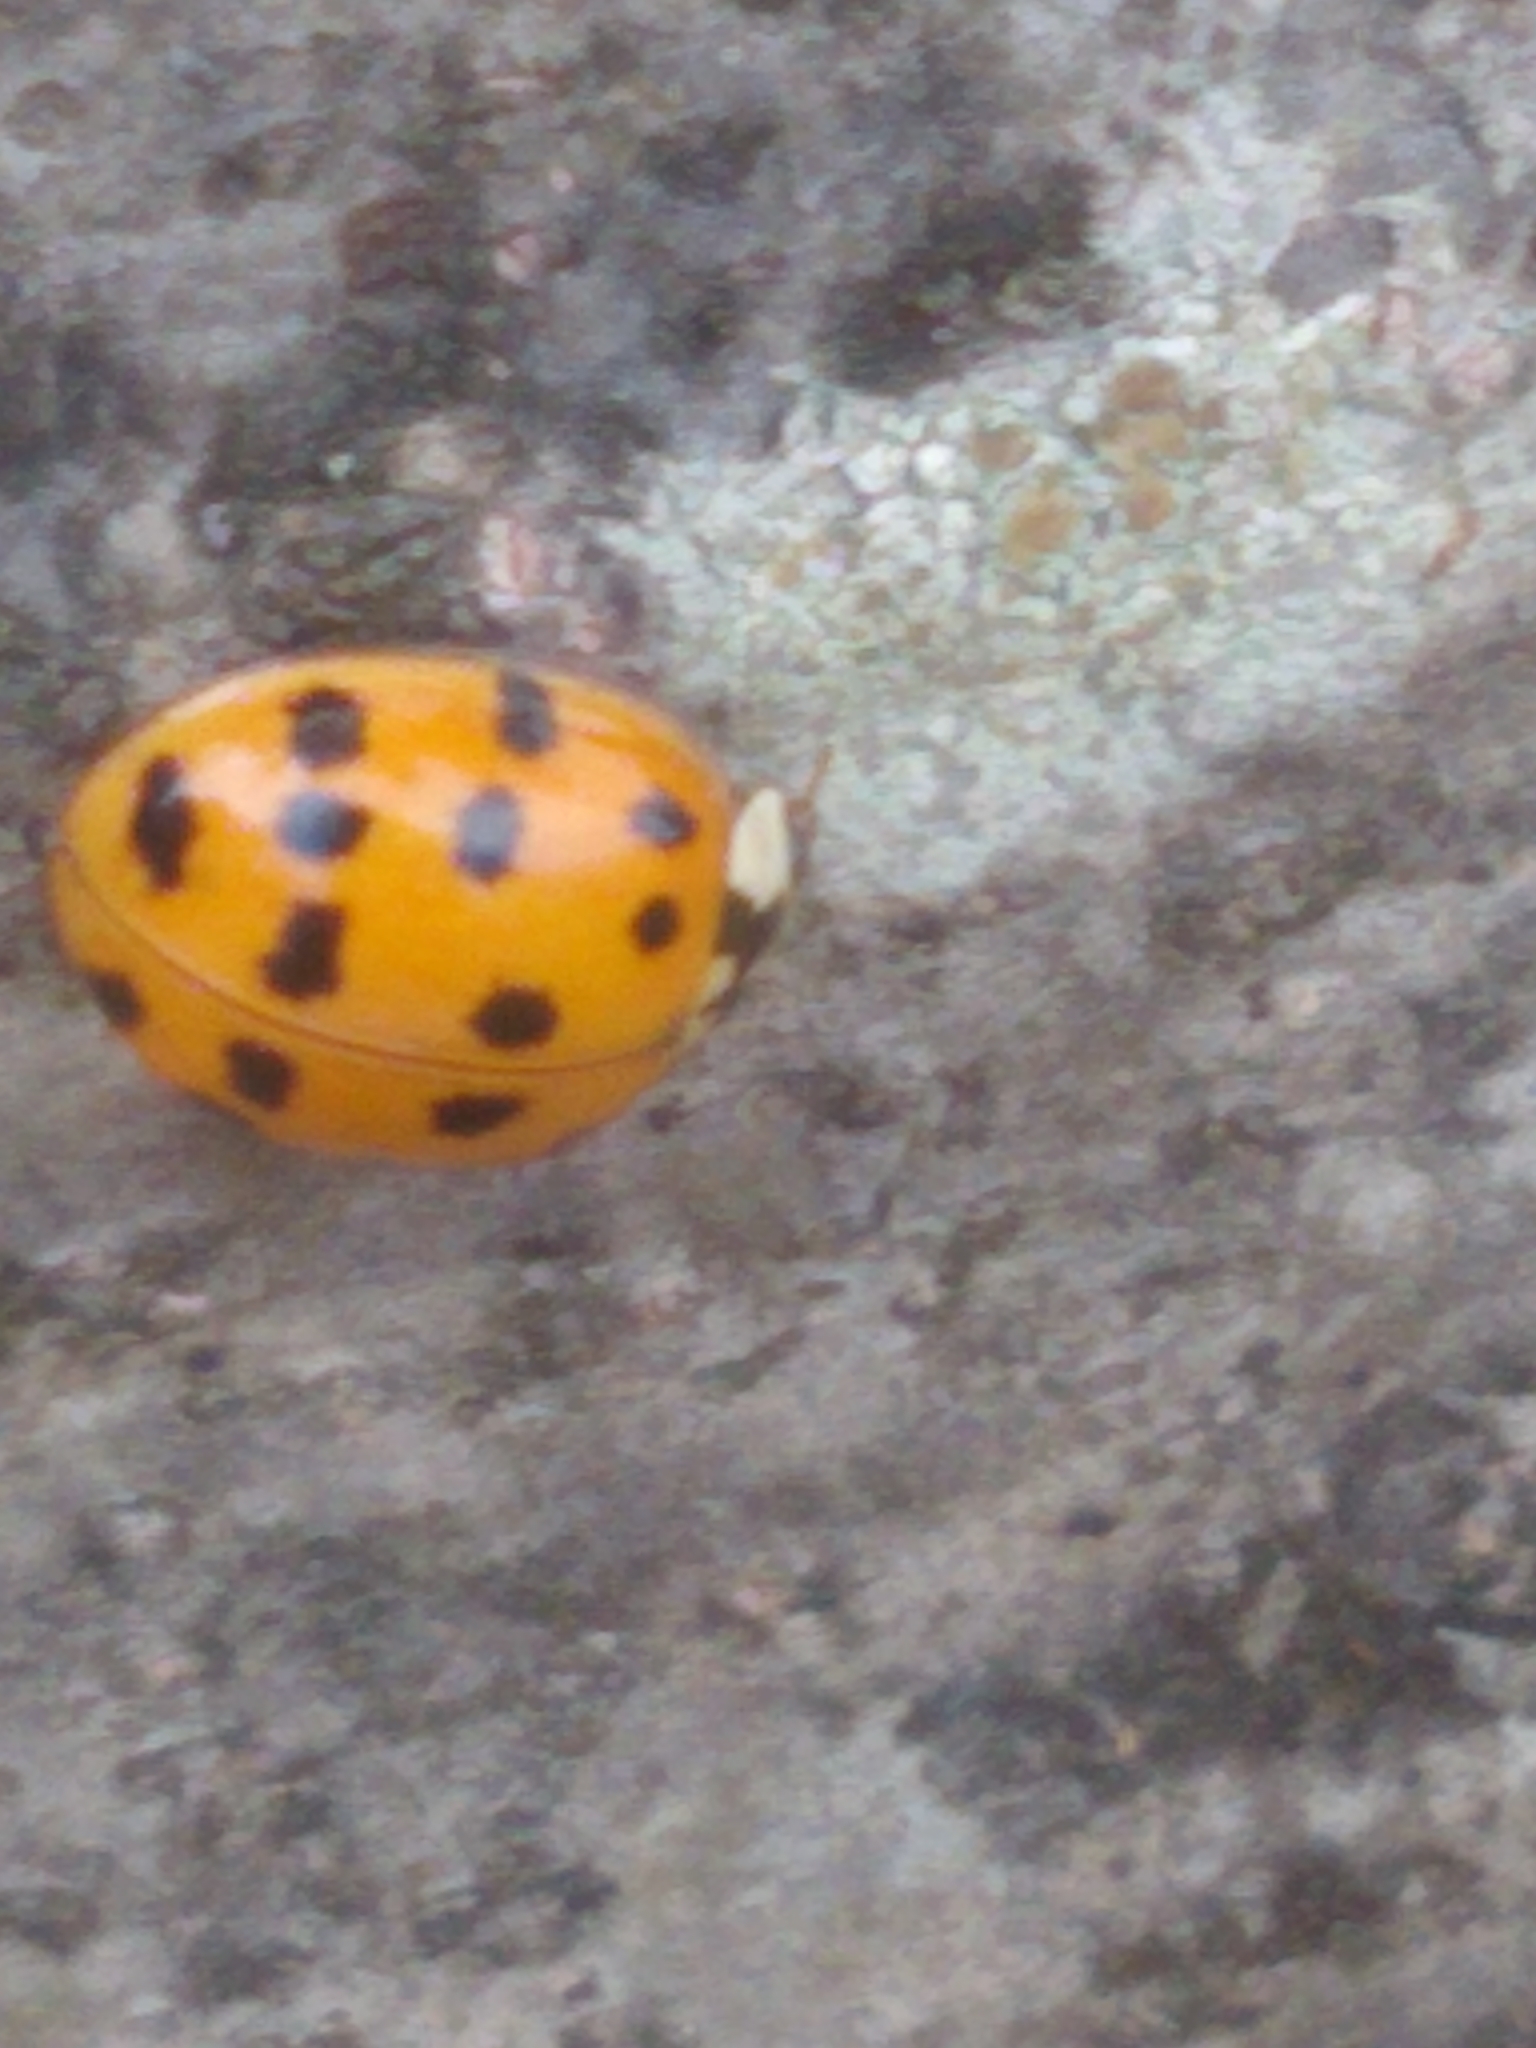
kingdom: Animalia
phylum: Arthropoda
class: Insecta
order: Coleoptera
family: Coccinellidae
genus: Harmonia
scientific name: Harmonia axyridis
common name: Harlequin ladybird
